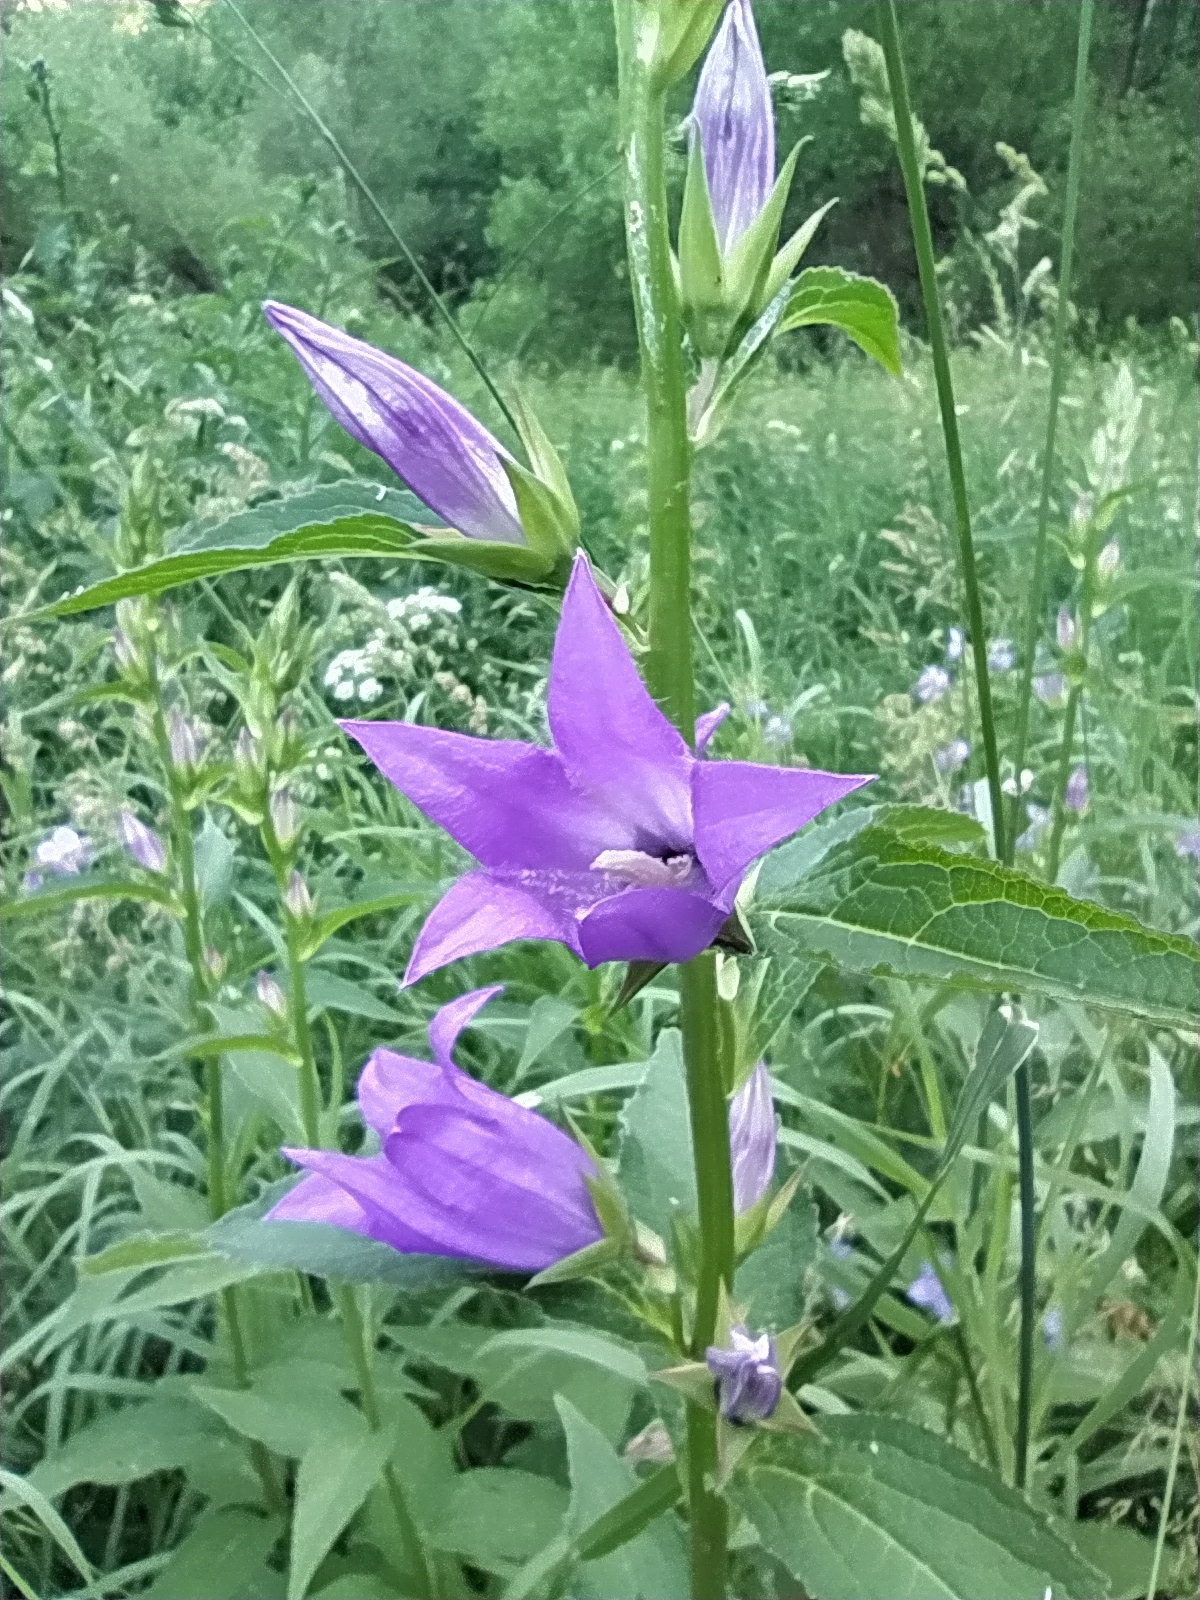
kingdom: Plantae
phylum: Tracheophyta
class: Magnoliopsida
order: Asterales
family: Campanulaceae
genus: Campanula
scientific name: Campanula latifolia
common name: Giant bellflower
